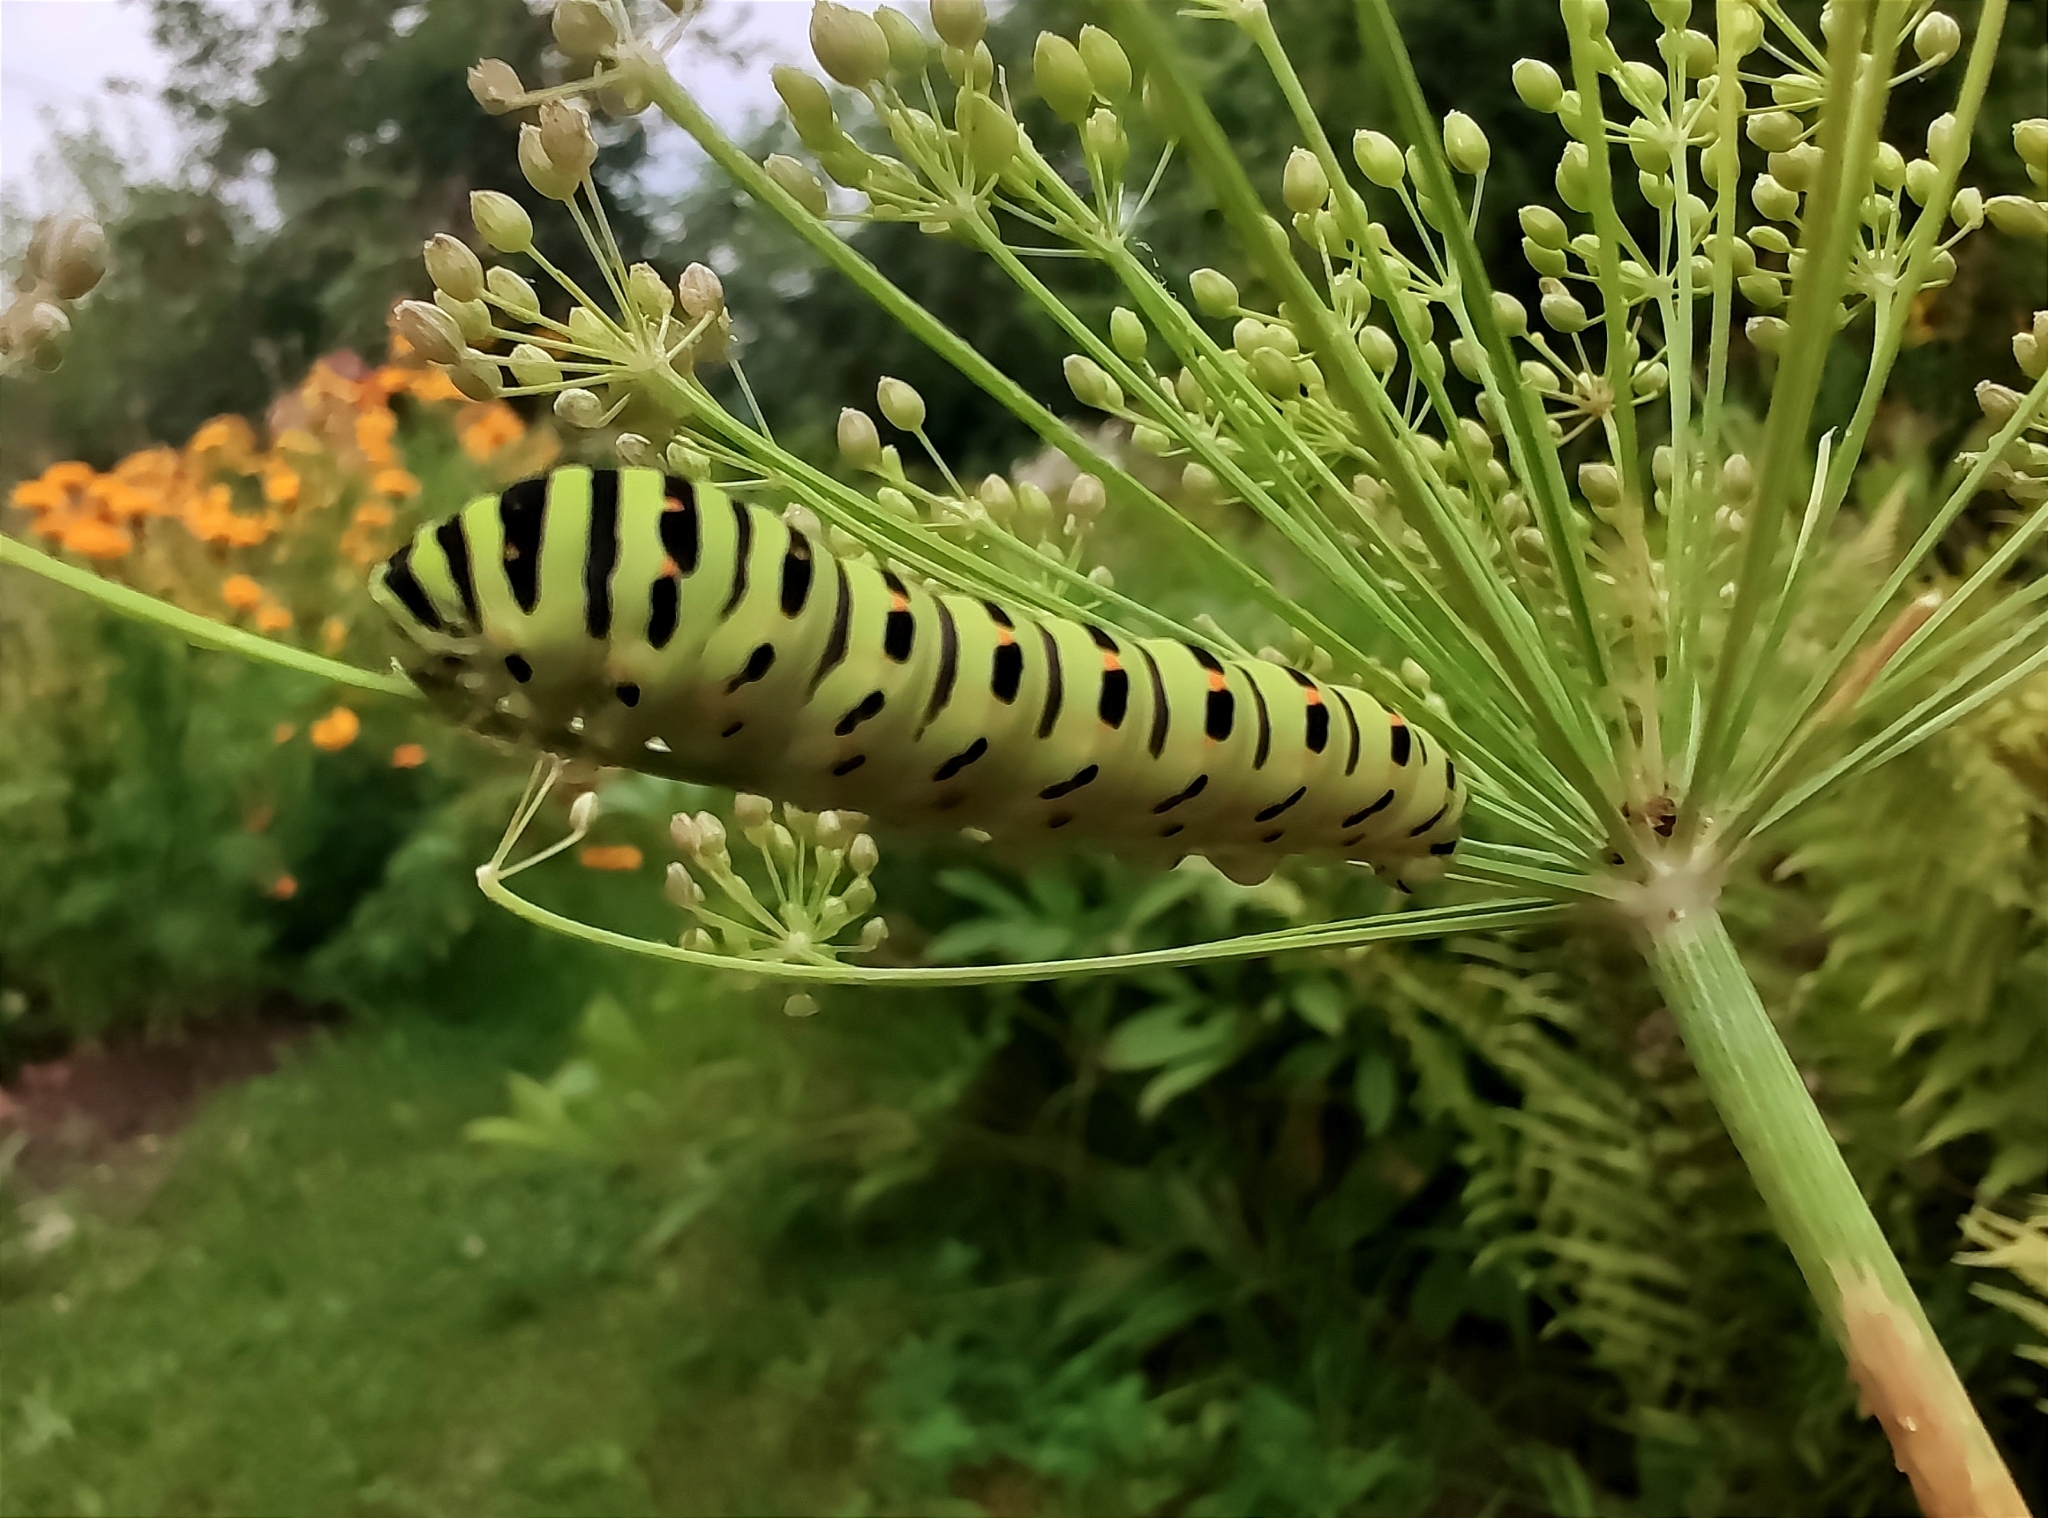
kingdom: Animalia
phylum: Arthropoda
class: Insecta
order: Lepidoptera
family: Papilionidae
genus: Papilio
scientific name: Papilio machaon
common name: Swallowtail
